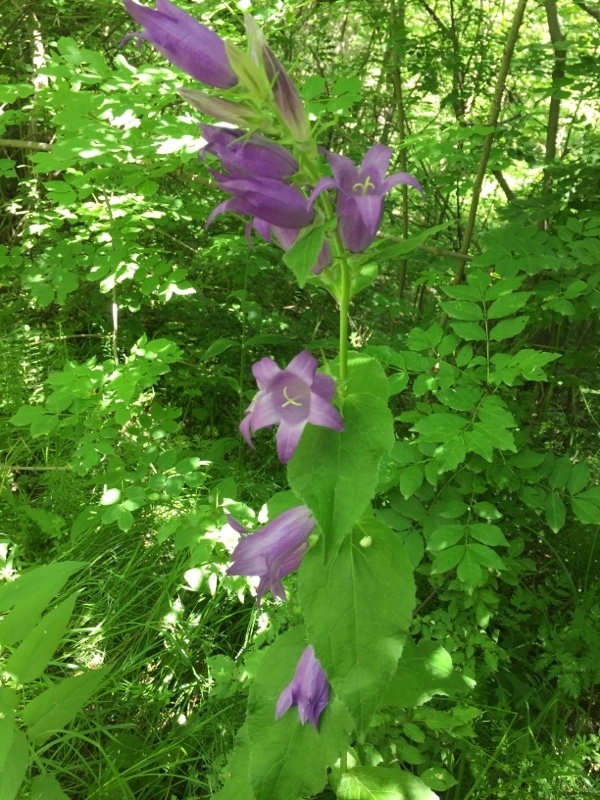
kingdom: Plantae
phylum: Tracheophyta
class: Magnoliopsida
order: Asterales
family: Campanulaceae
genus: Campanula
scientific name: Campanula latifolia
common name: Giant bellflower
